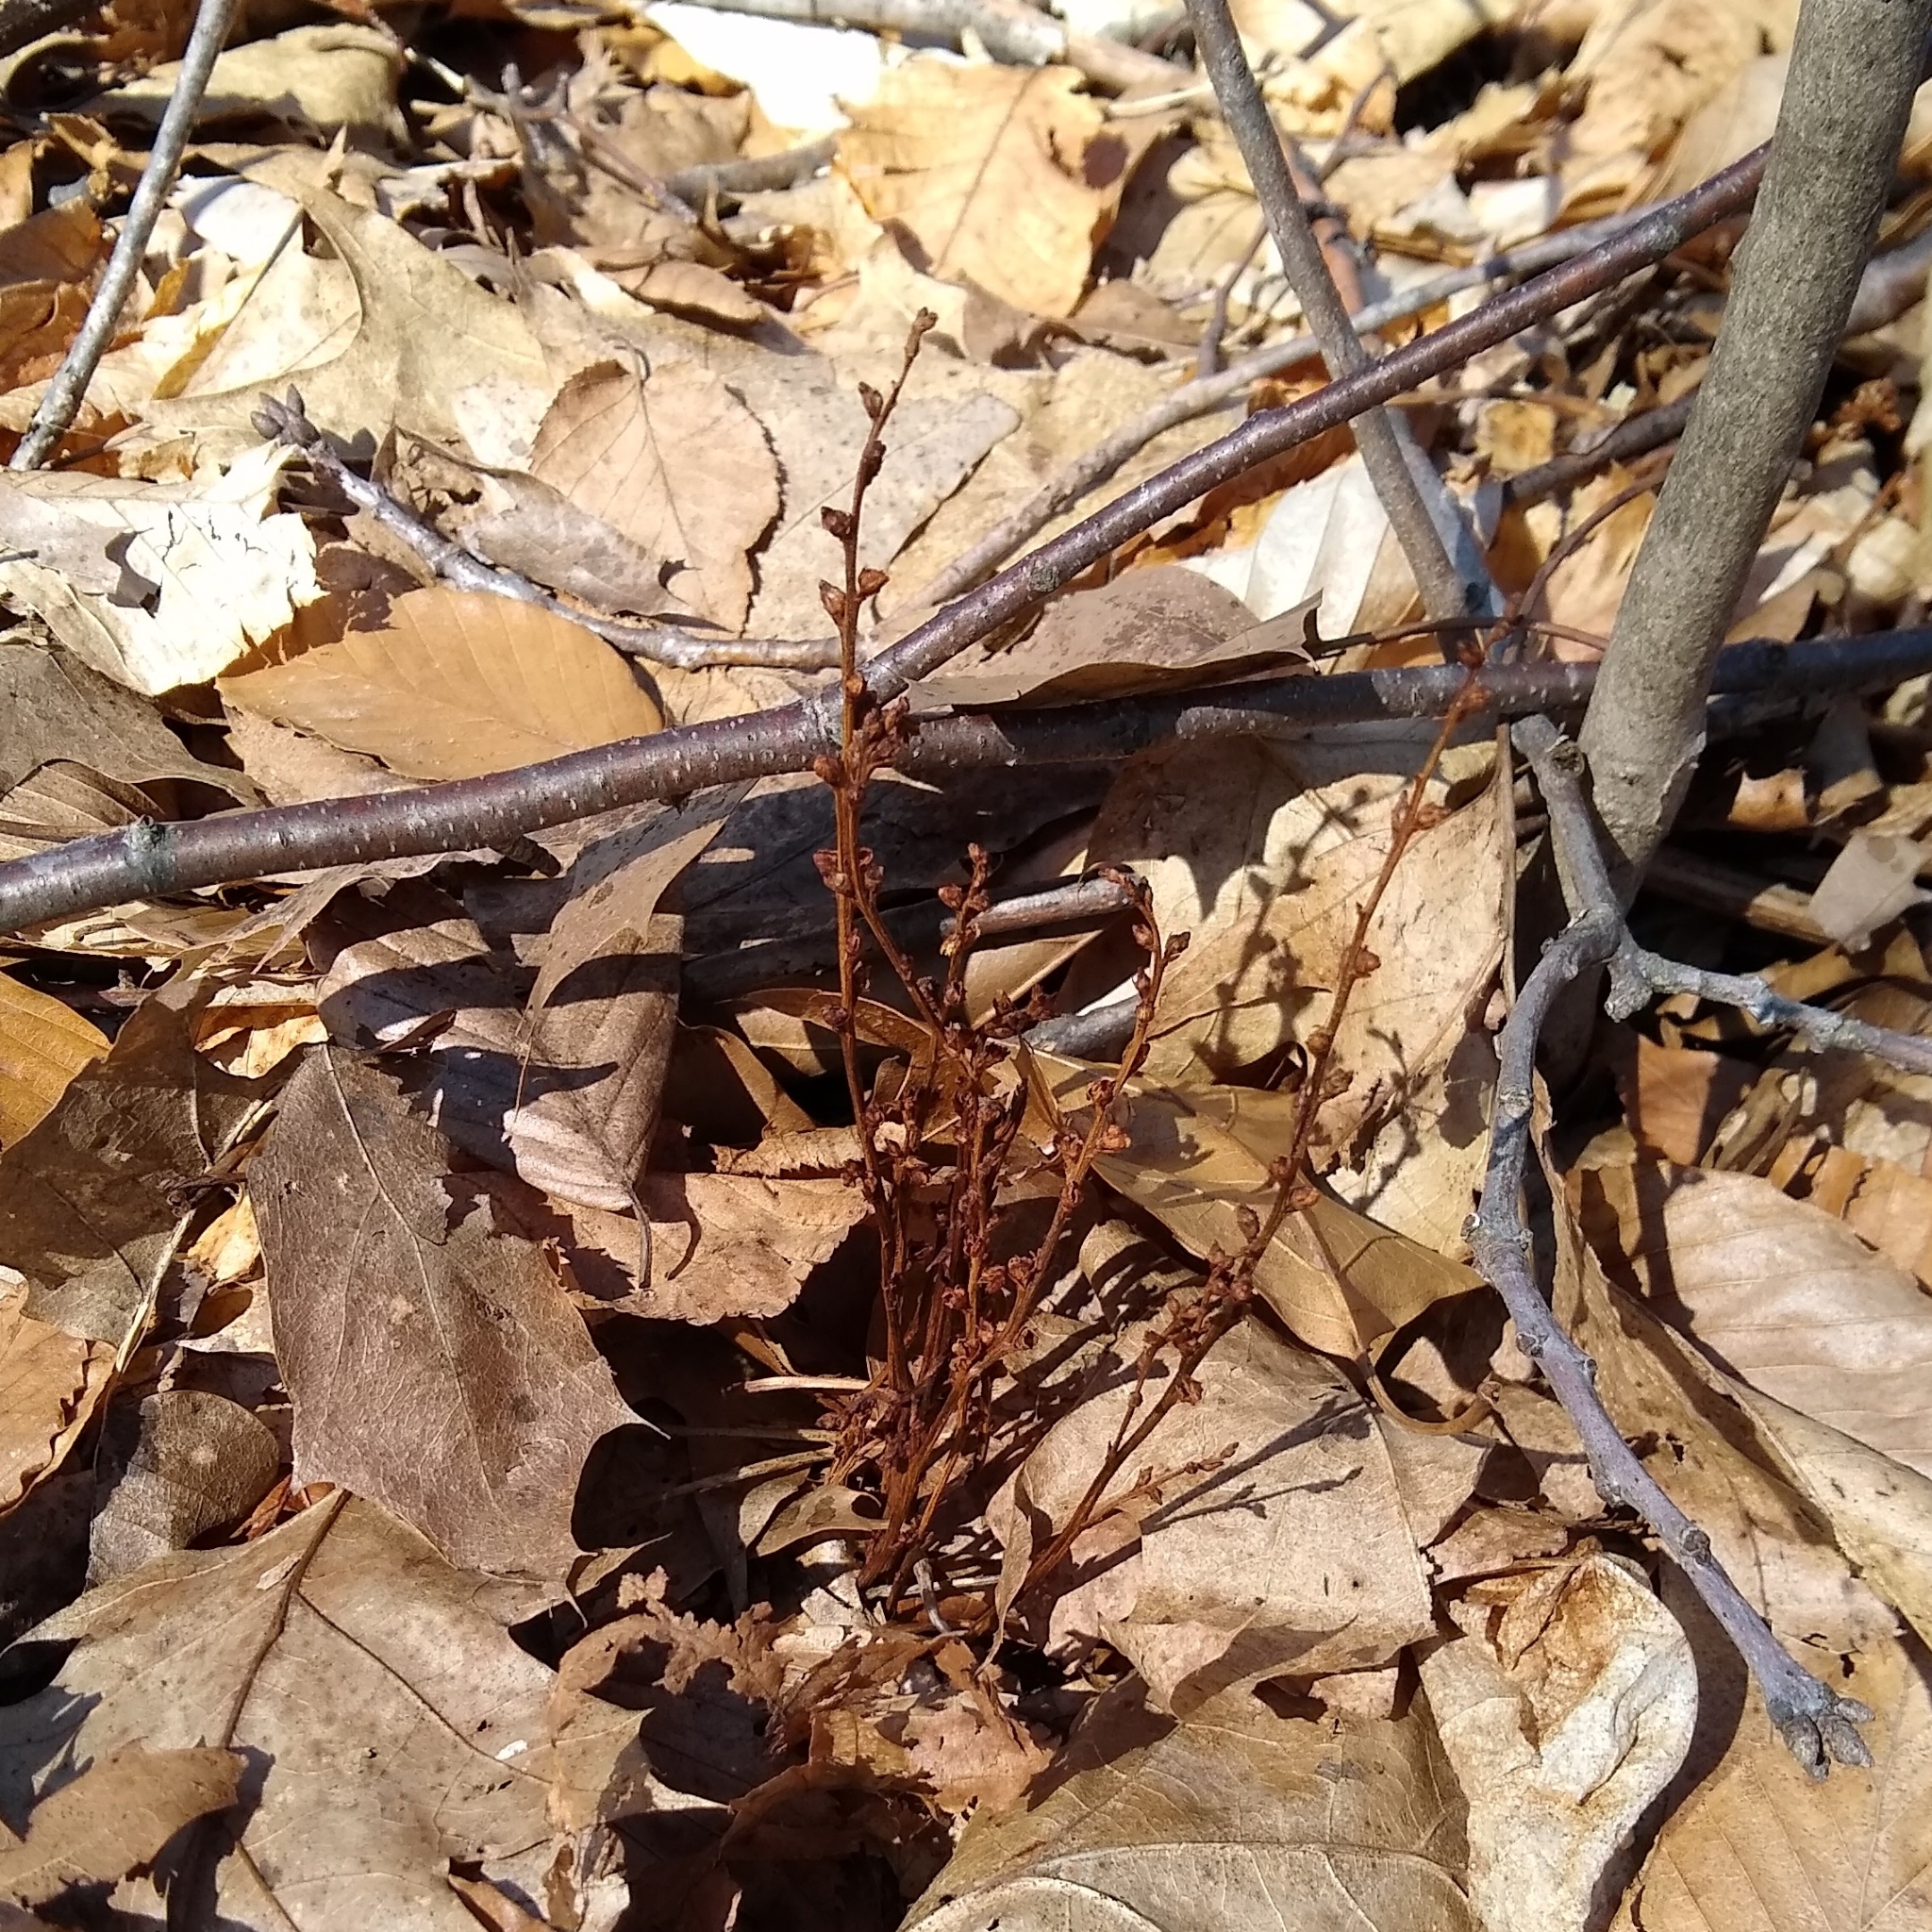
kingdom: Plantae
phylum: Tracheophyta
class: Magnoliopsida
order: Lamiales
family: Orobanchaceae
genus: Epifagus
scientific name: Epifagus virginiana
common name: Beechdrops
